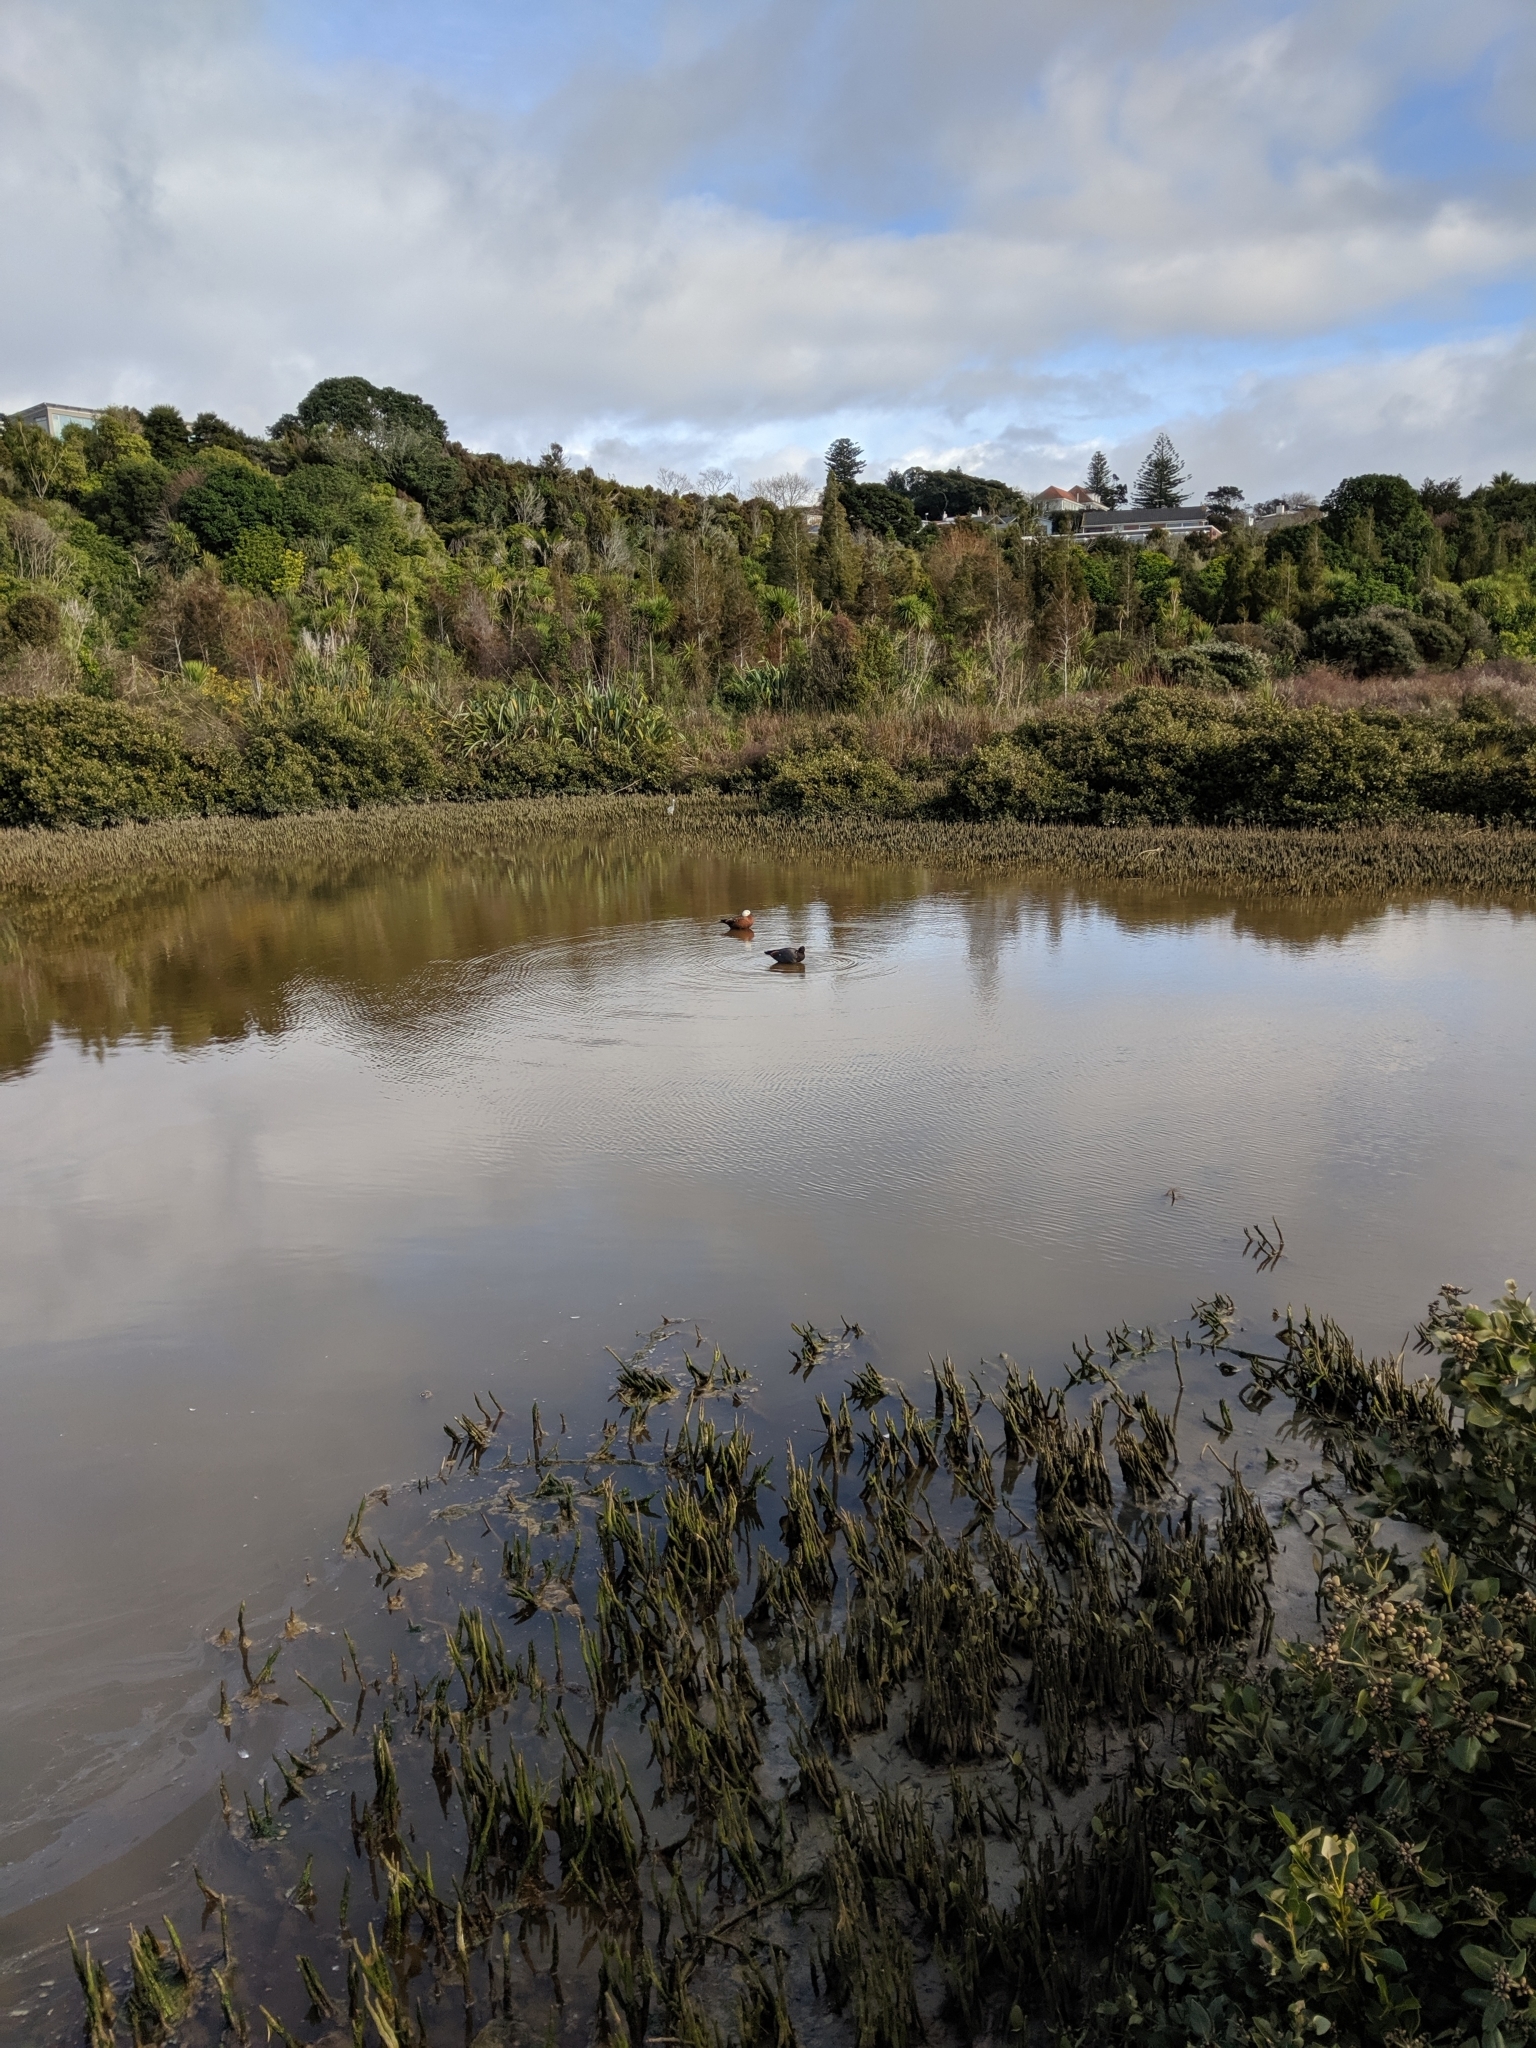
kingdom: Animalia
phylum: Chordata
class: Aves
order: Anseriformes
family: Anatidae
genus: Tadorna
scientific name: Tadorna variegata
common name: Paradise shelduck
